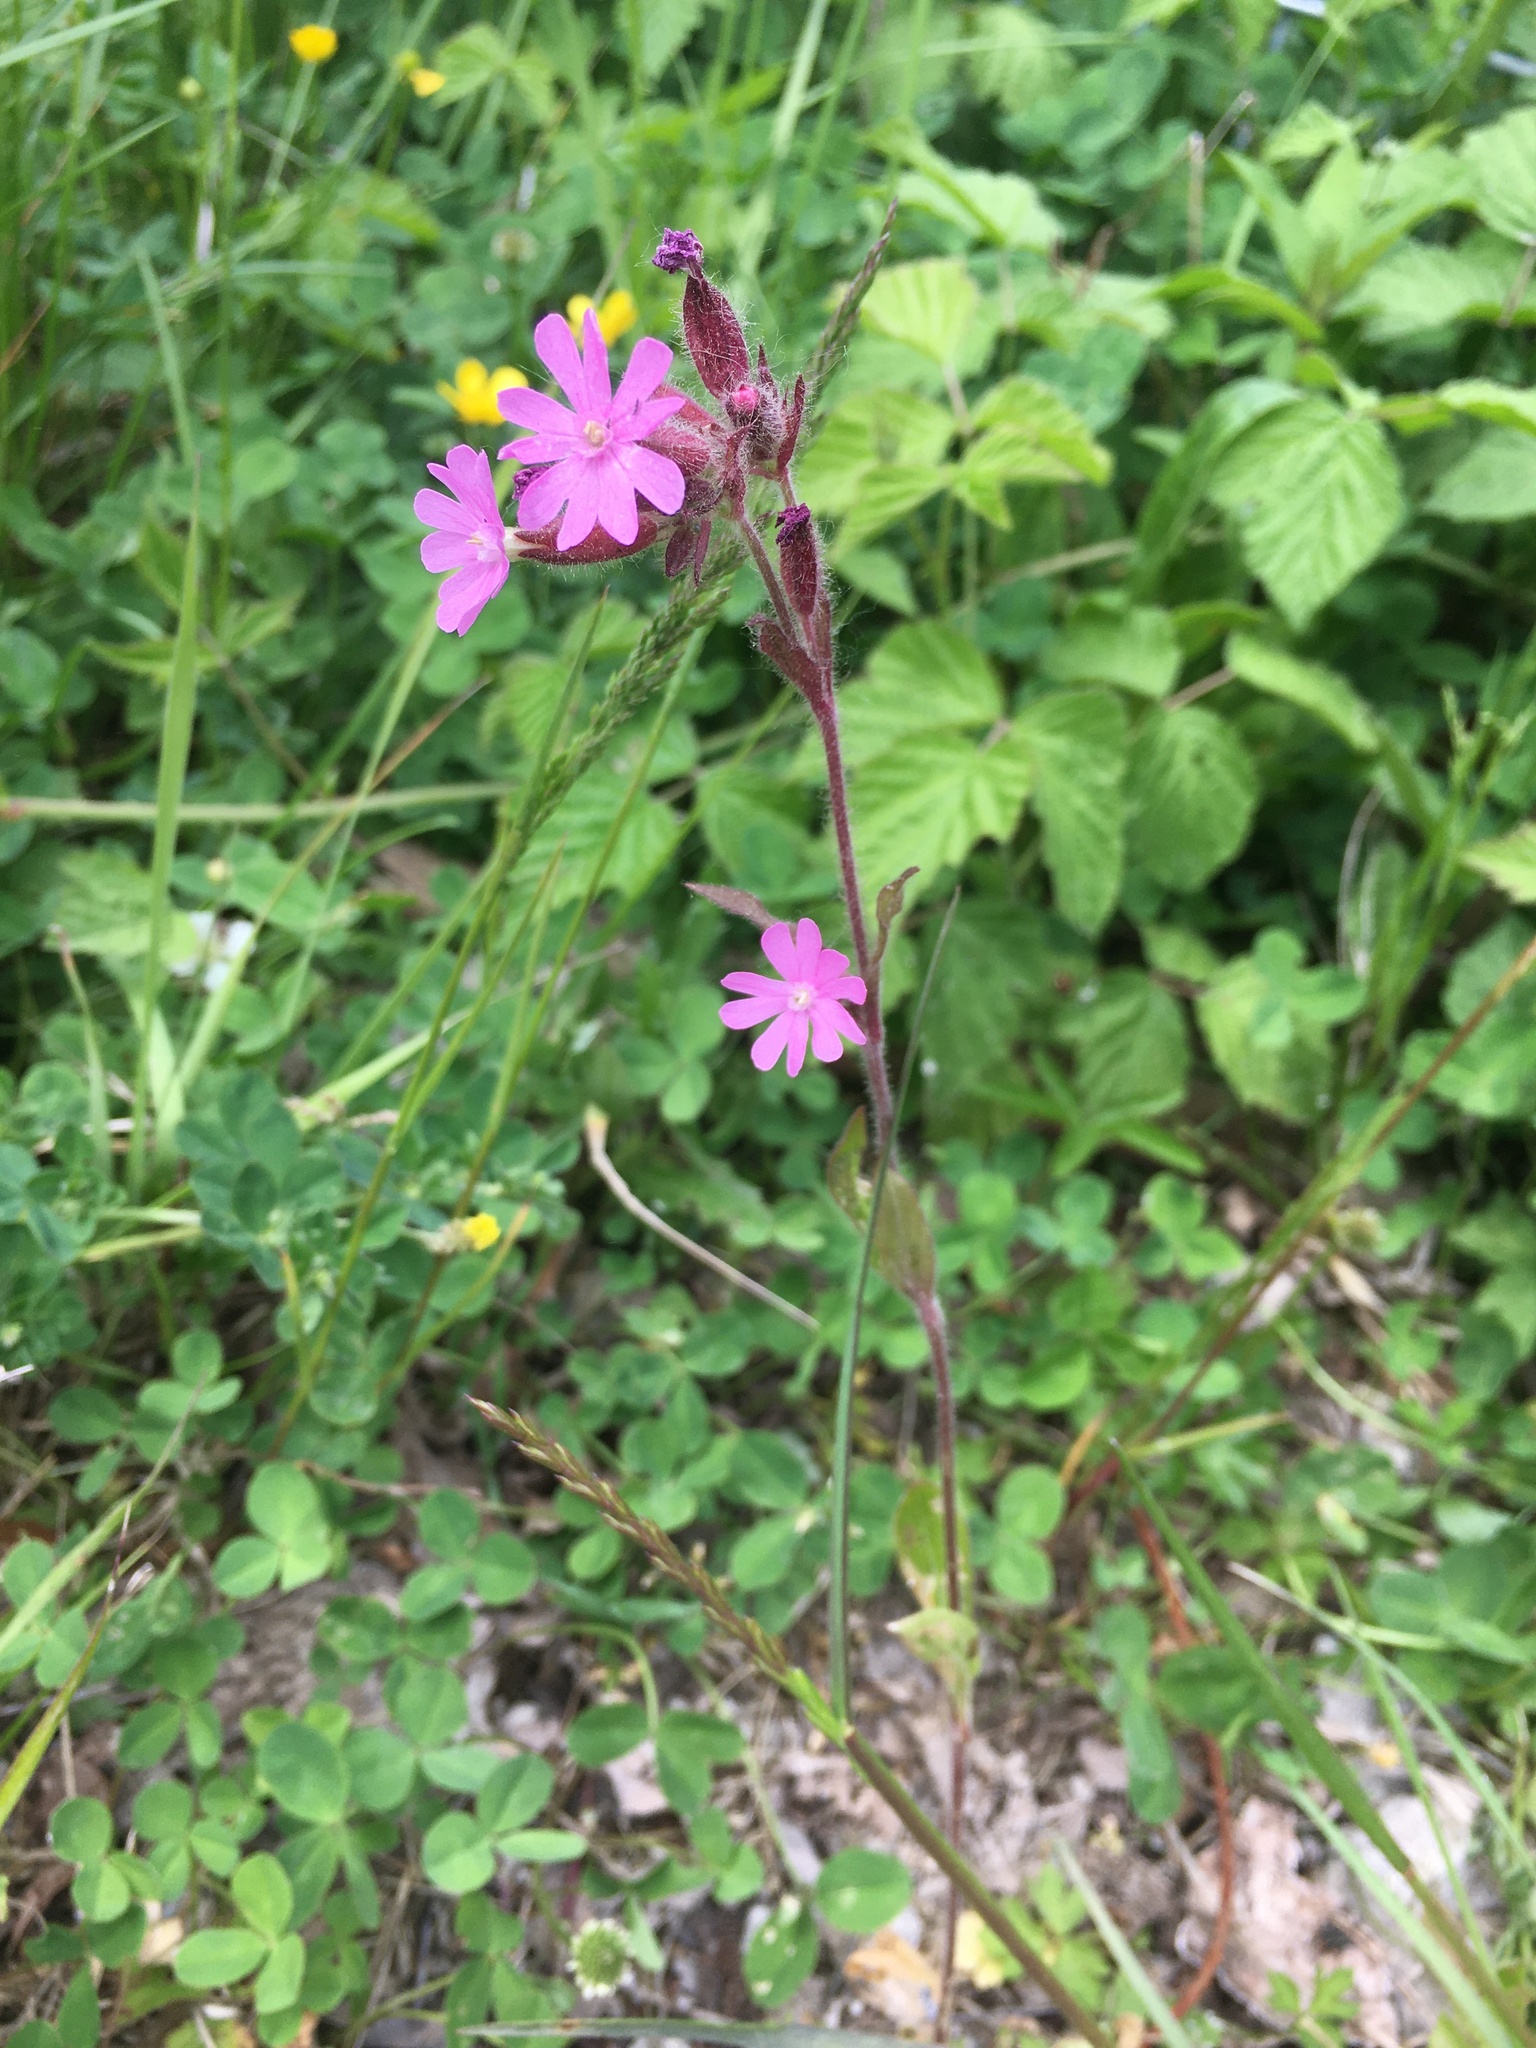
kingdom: Plantae
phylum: Tracheophyta
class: Magnoliopsida
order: Caryophyllales
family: Caryophyllaceae
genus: Silene
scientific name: Silene dioica
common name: Red campion
